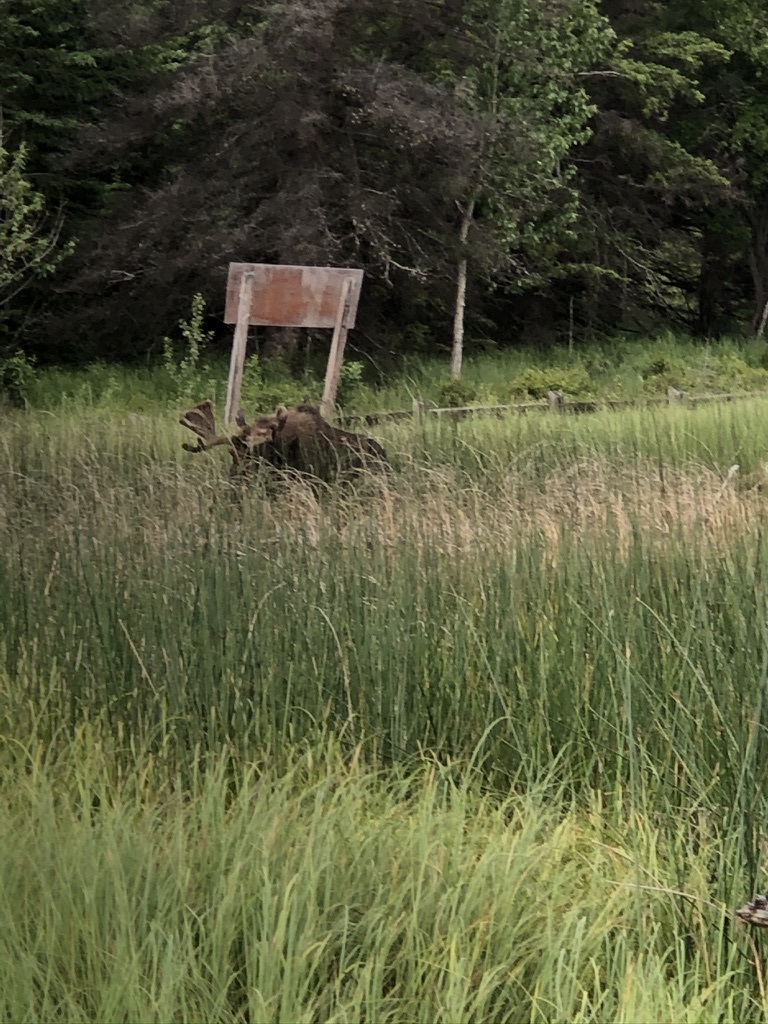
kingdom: Animalia
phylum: Chordata
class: Mammalia
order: Artiodactyla
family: Cervidae
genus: Alces
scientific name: Alces americanus
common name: Moose
